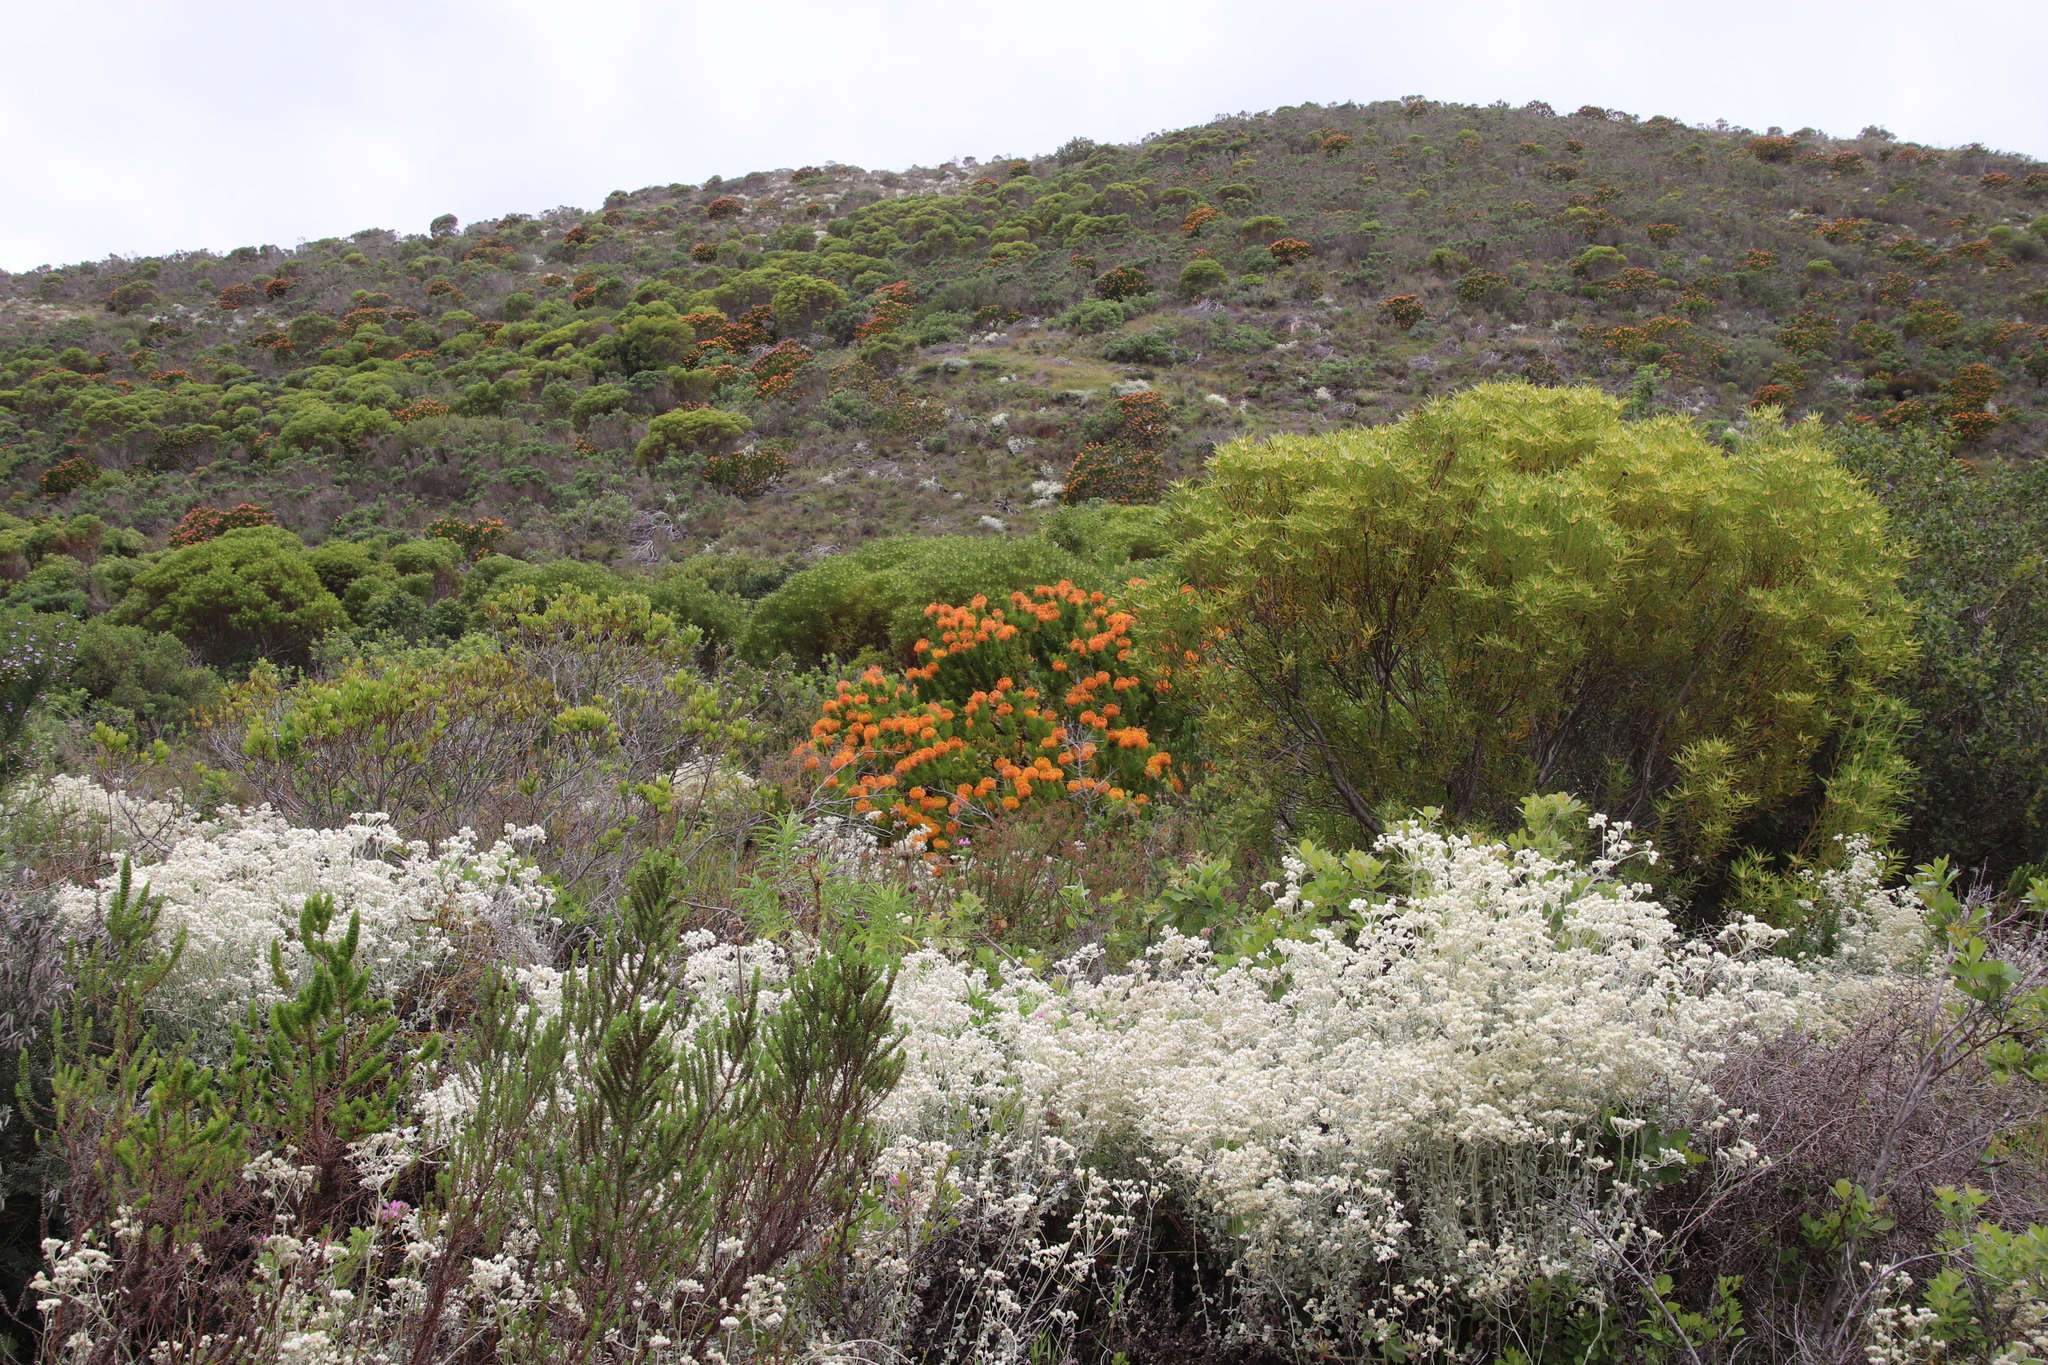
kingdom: Plantae
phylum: Tracheophyta
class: Magnoliopsida
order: Proteales
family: Proteaceae
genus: Leucospermum
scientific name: Leucospermum patersonii
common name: False tree pincushion
